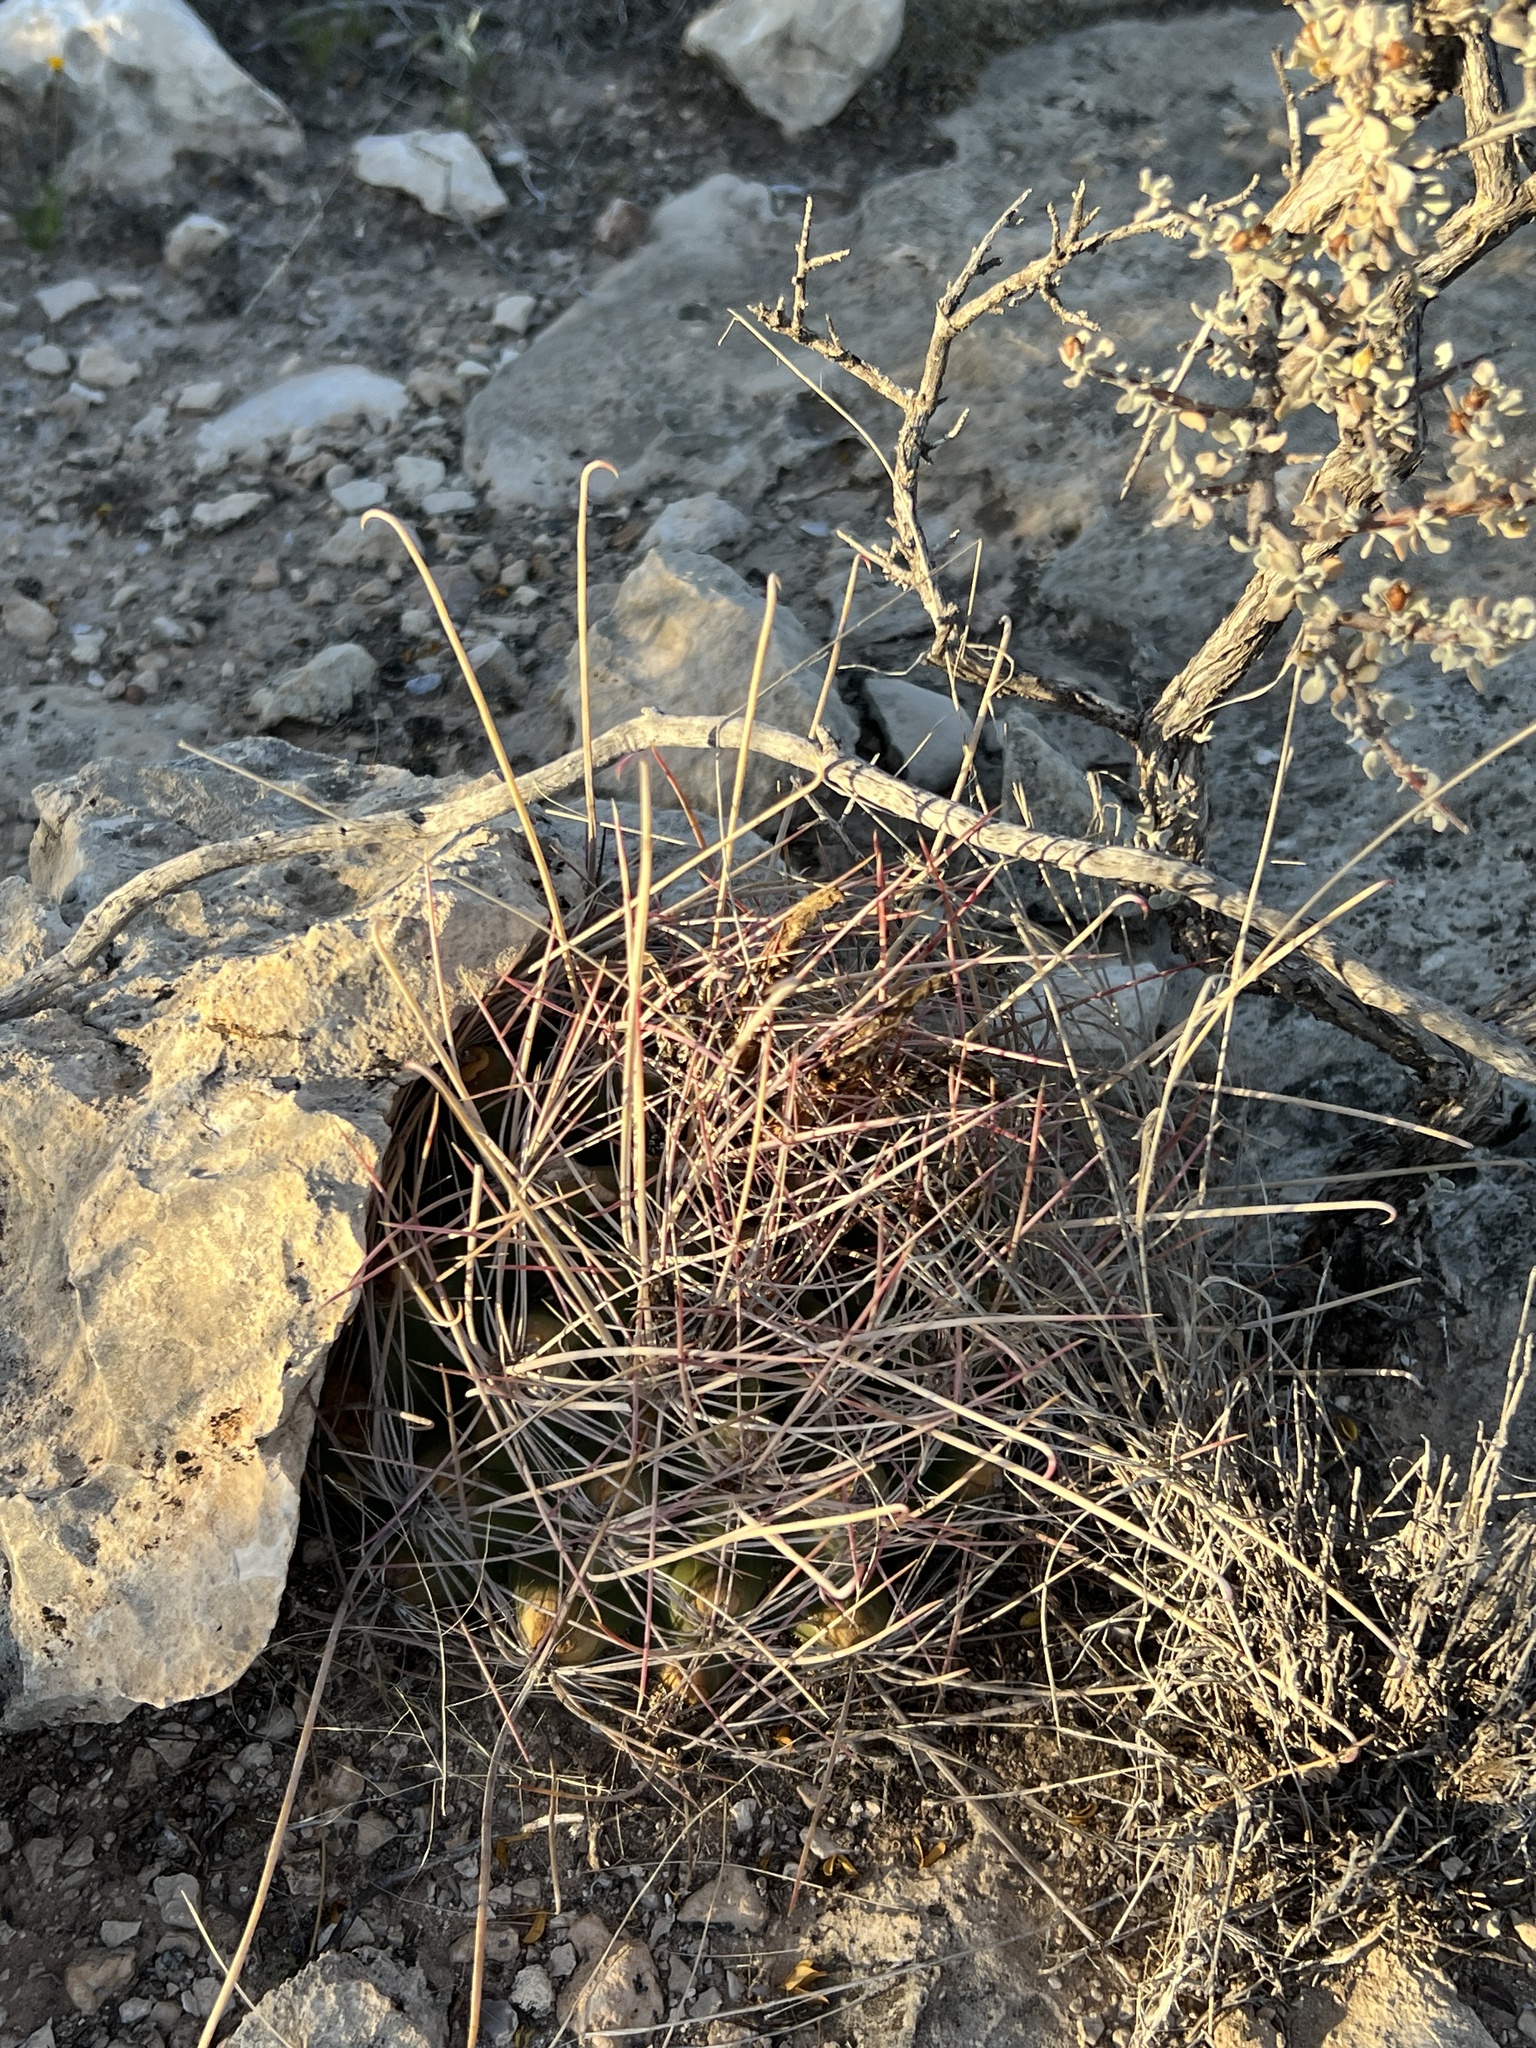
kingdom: Plantae
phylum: Tracheophyta
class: Magnoliopsida
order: Caryophyllales
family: Cactaceae
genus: Bisnaga
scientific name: Bisnaga hamatacantha
